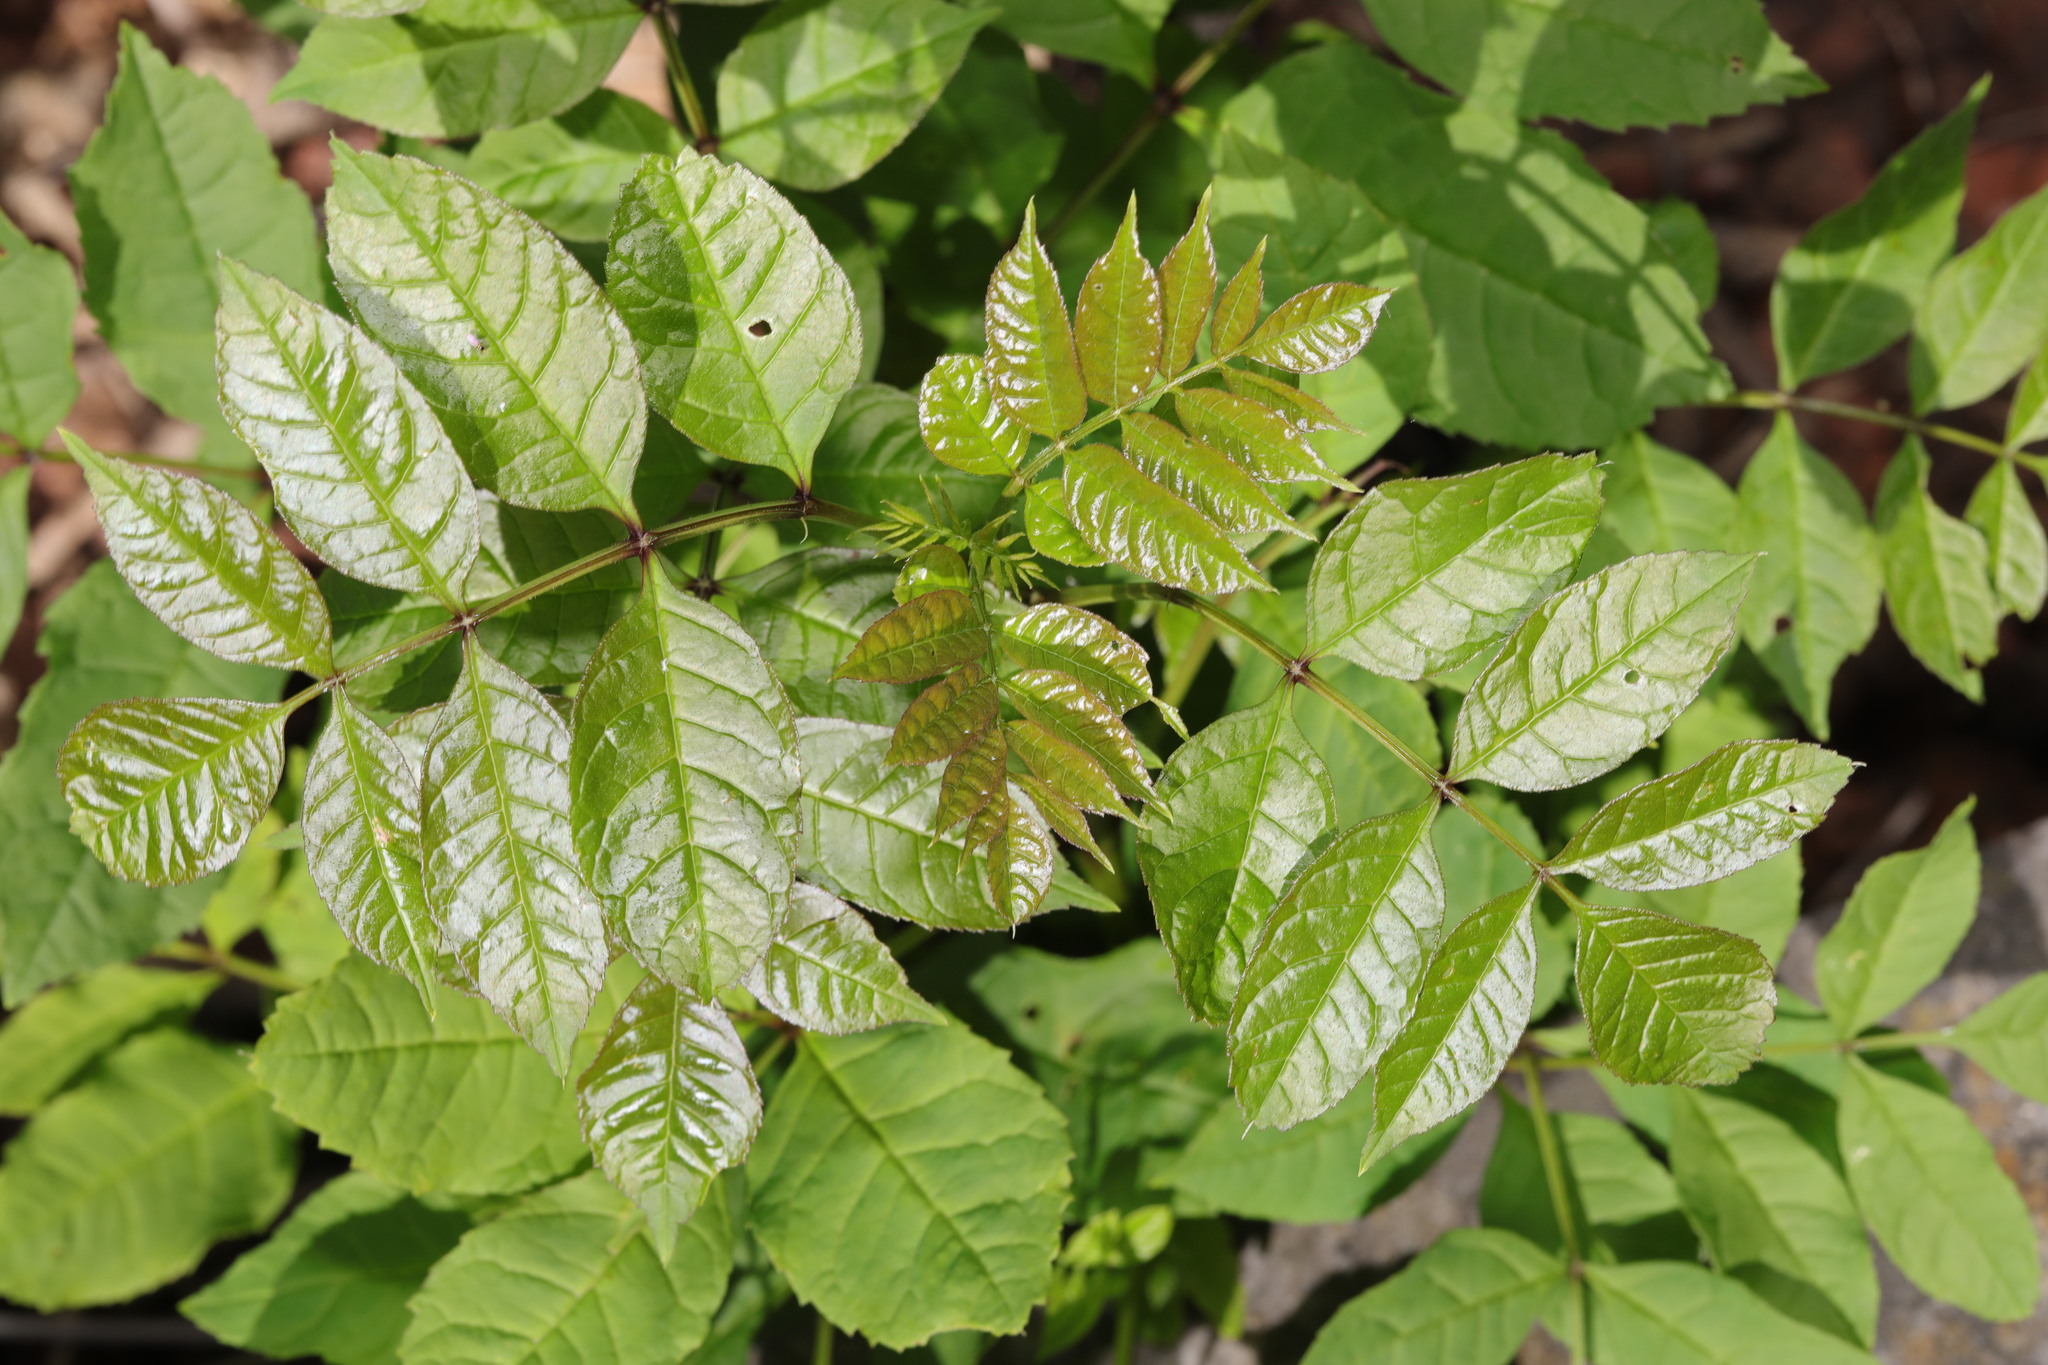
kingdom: Plantae
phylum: Tracheophyta
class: Magnoliopsida
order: Lamiales
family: Oleaceae
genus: Fraxinus
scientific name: Fraxinus excelsior
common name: European ash
